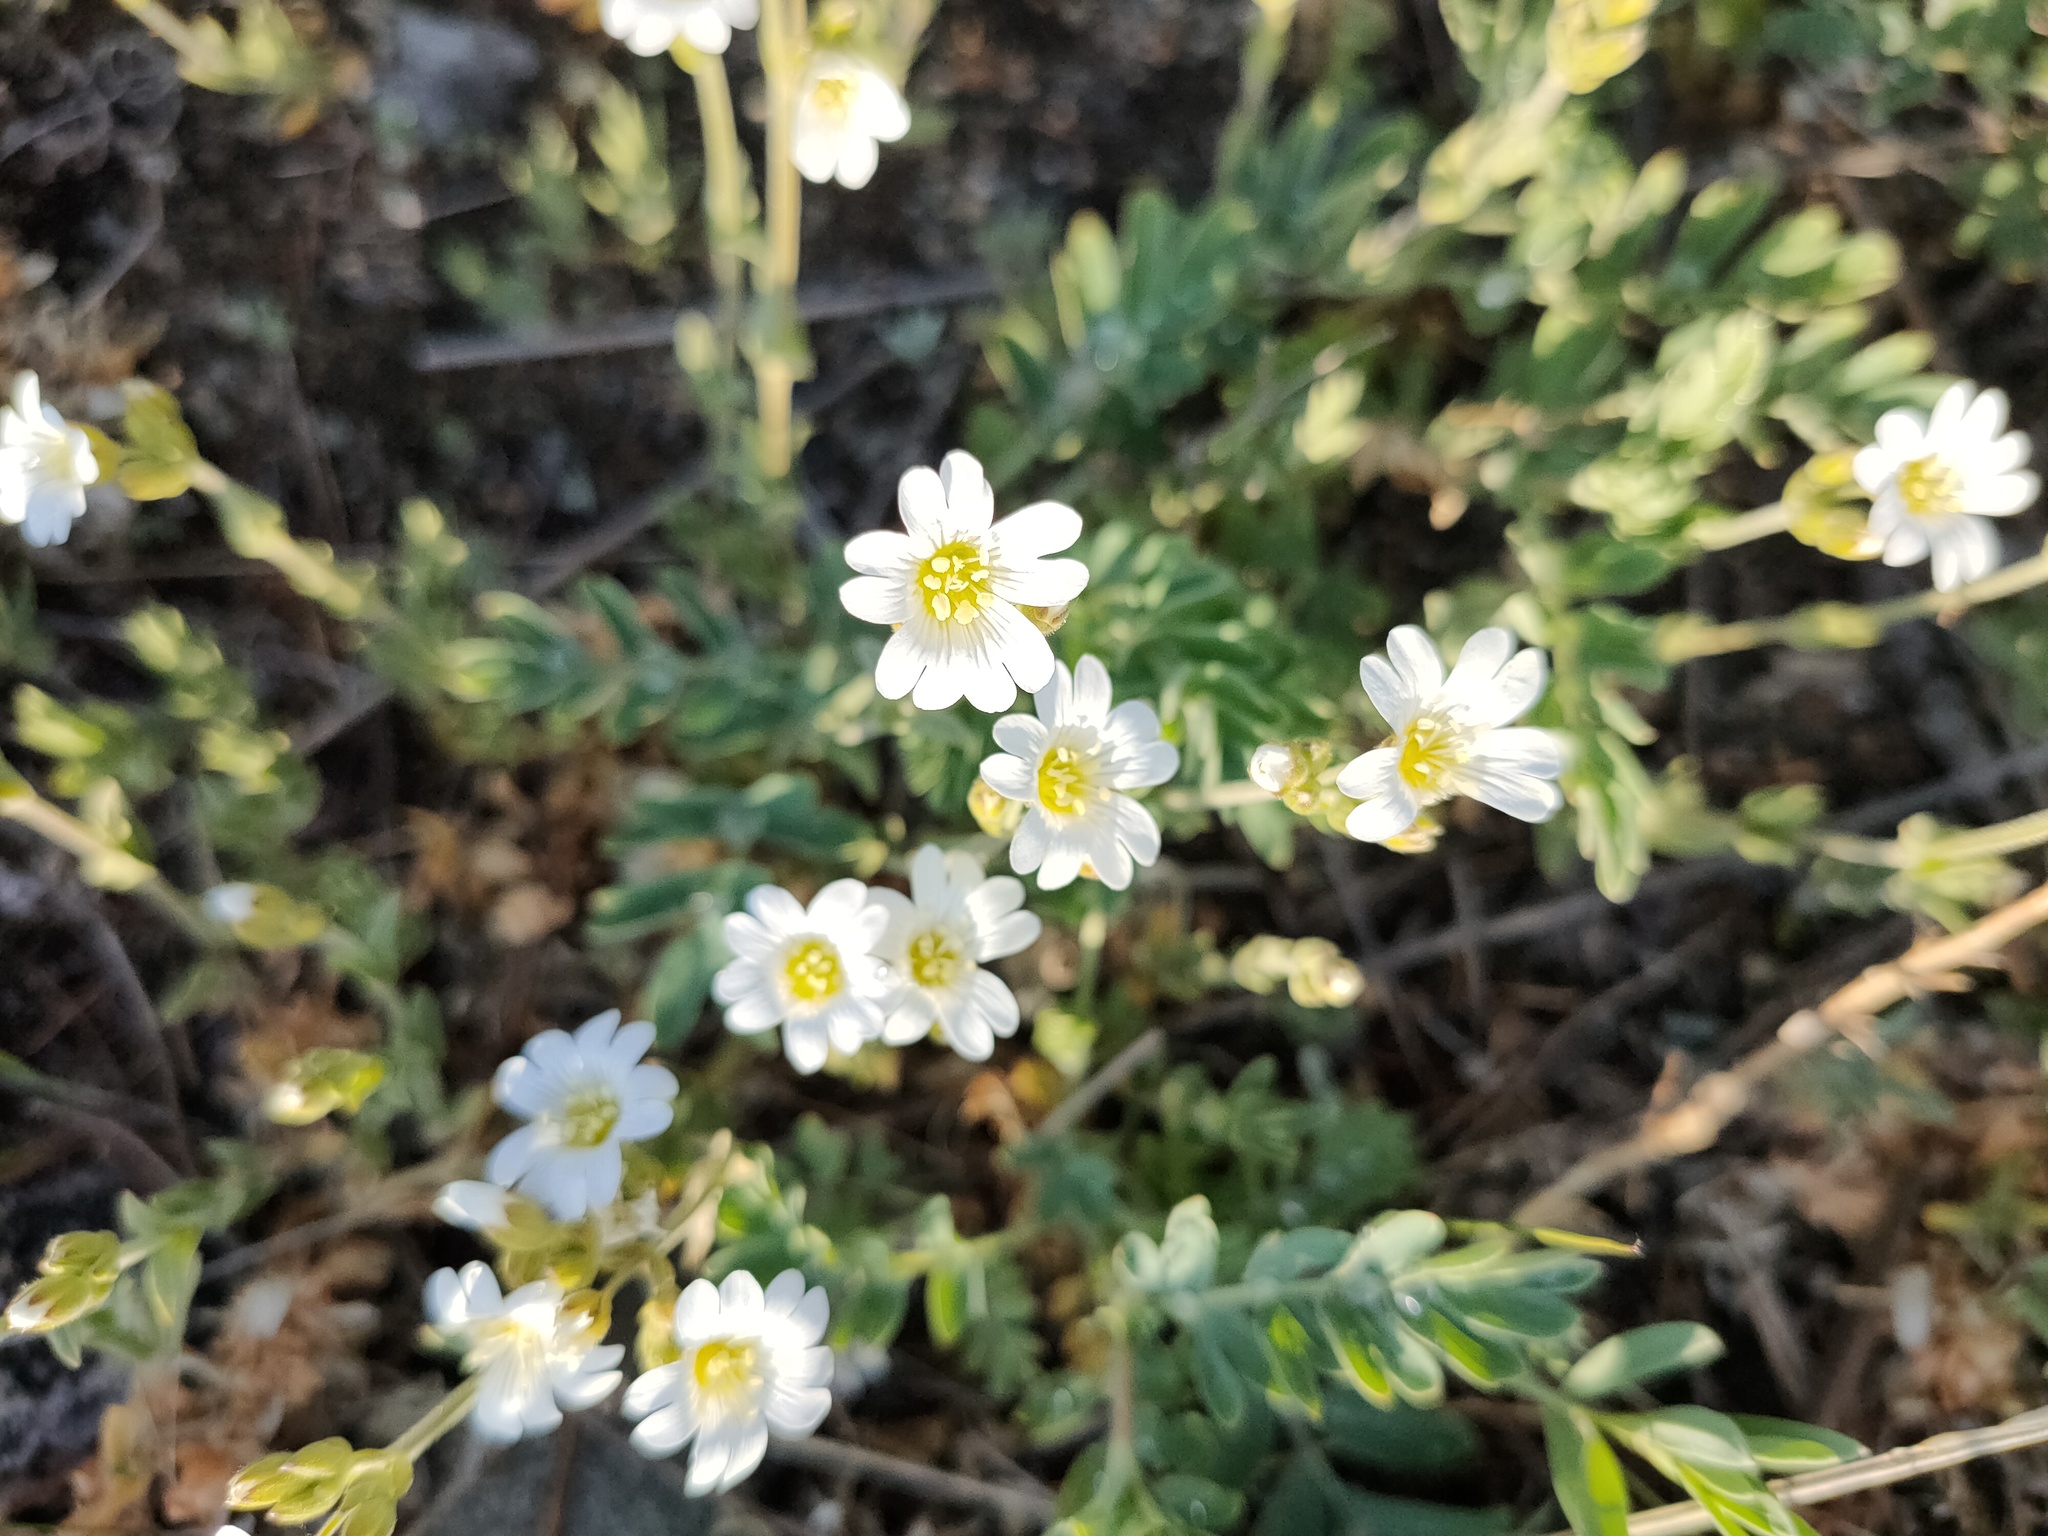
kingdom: Plantae
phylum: Tracheophyta
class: Magnoliopsida
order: Caryophyllales
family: Caryophyllaceae
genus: Cerastium
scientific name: Cerastium arvense
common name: Field mouse-ear
